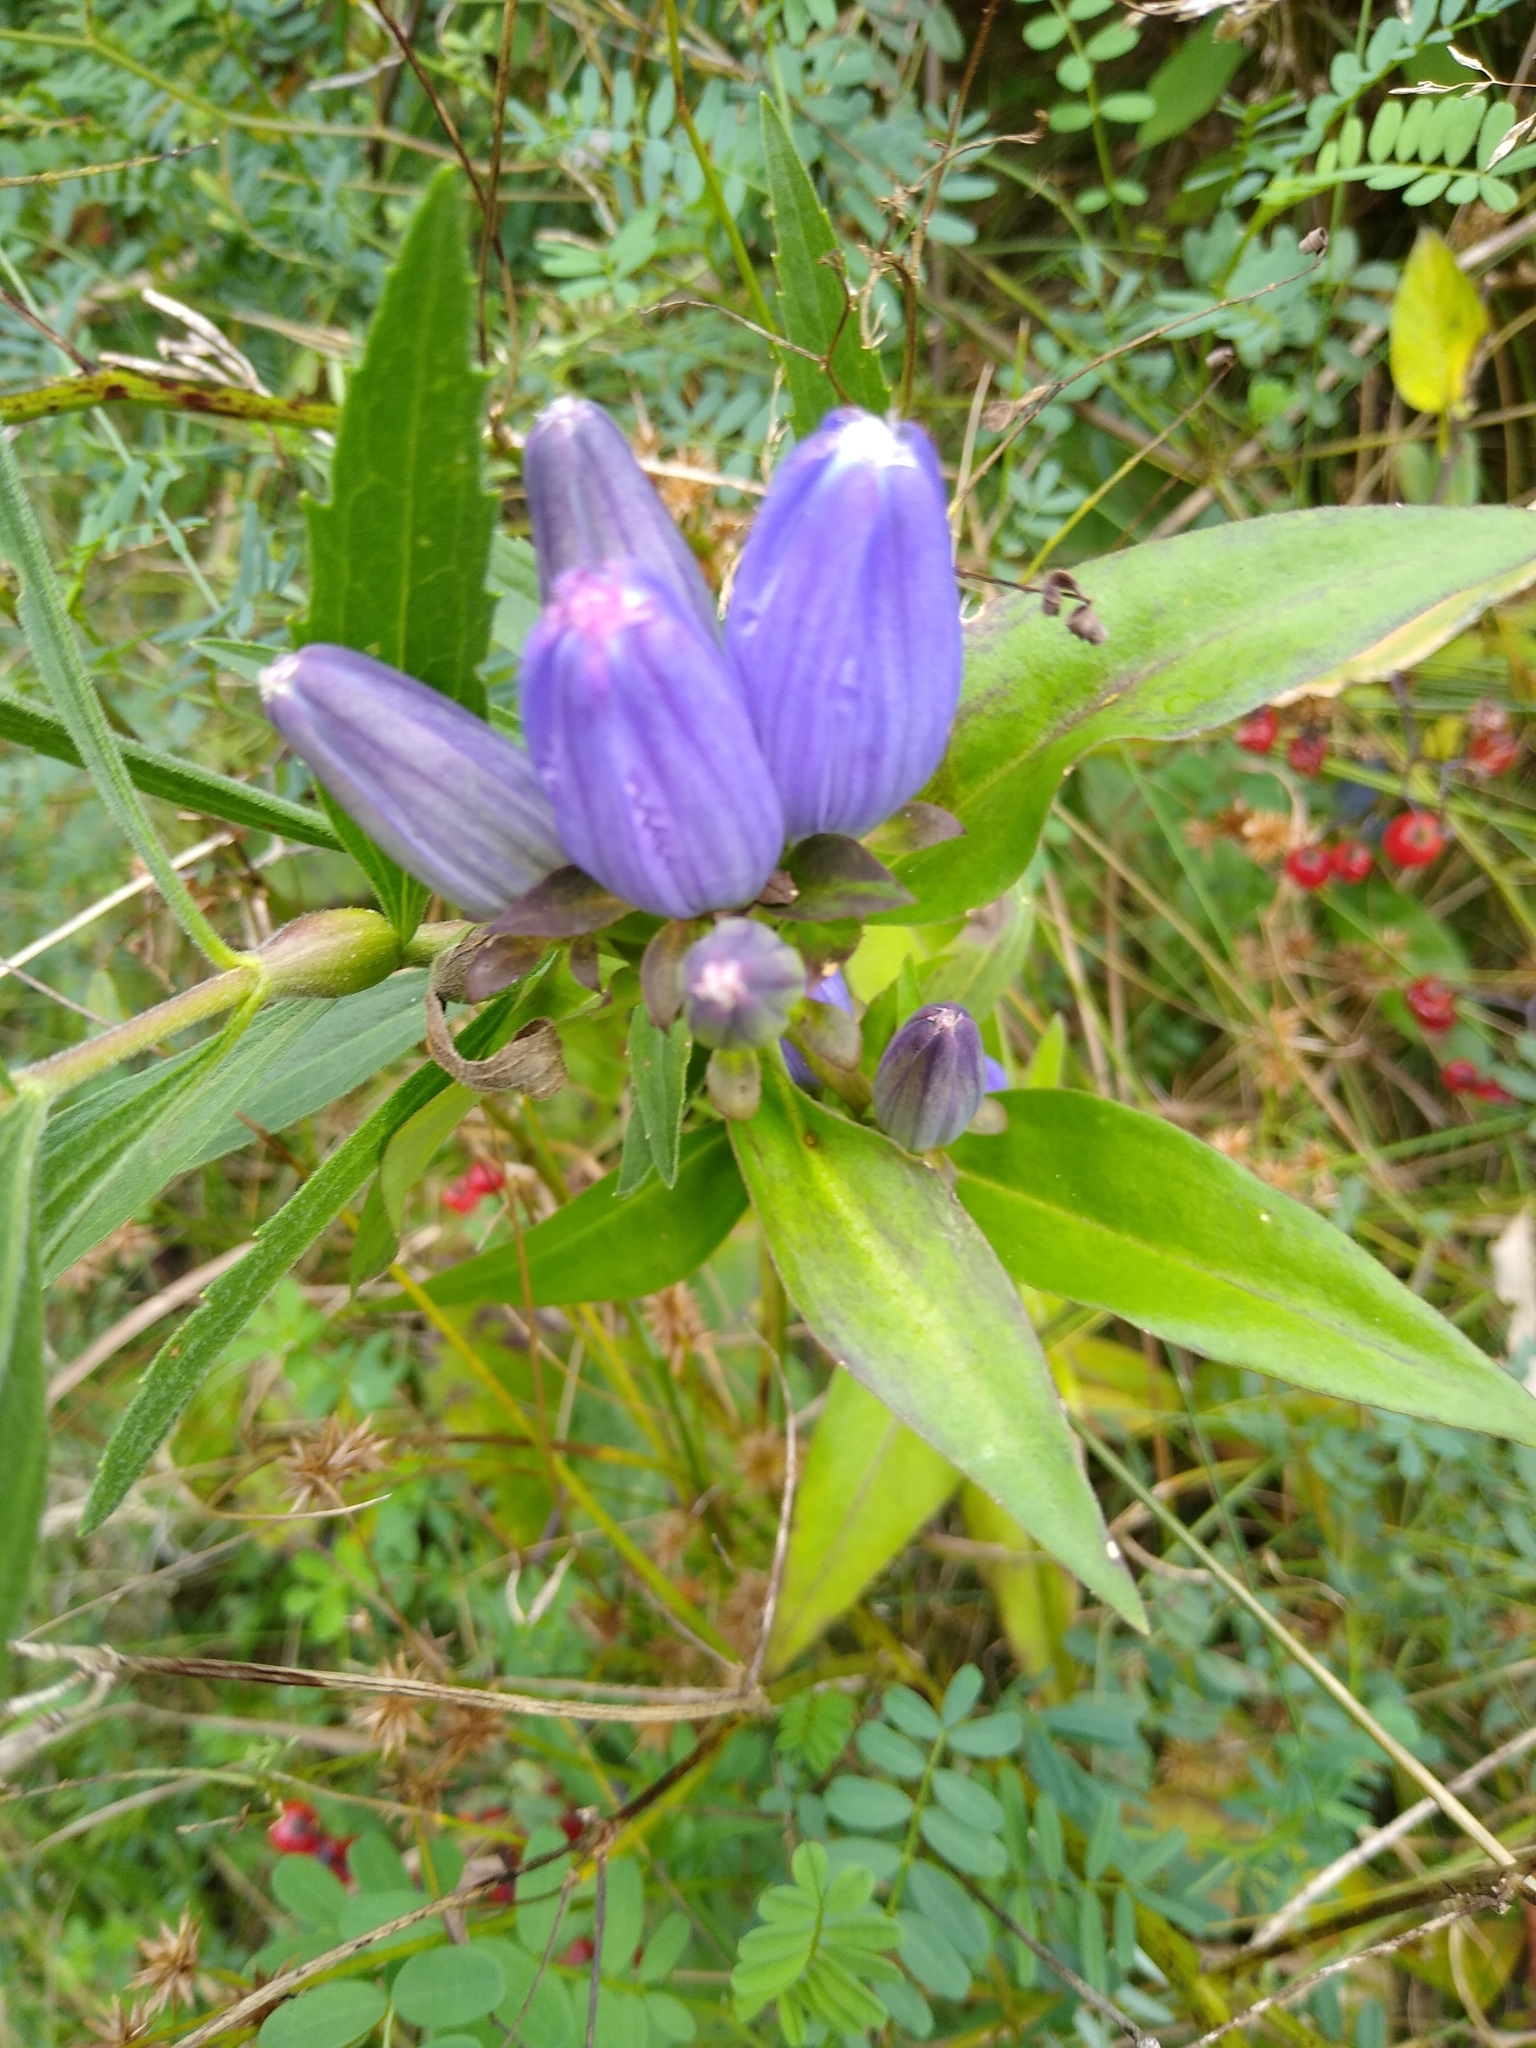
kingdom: Plantae
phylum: Tracheophyta
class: Magnoliopsida
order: Gentianales
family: Gentianaceae
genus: Gentiana
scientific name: Gentiana andrewsii
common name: Bottle gentian
